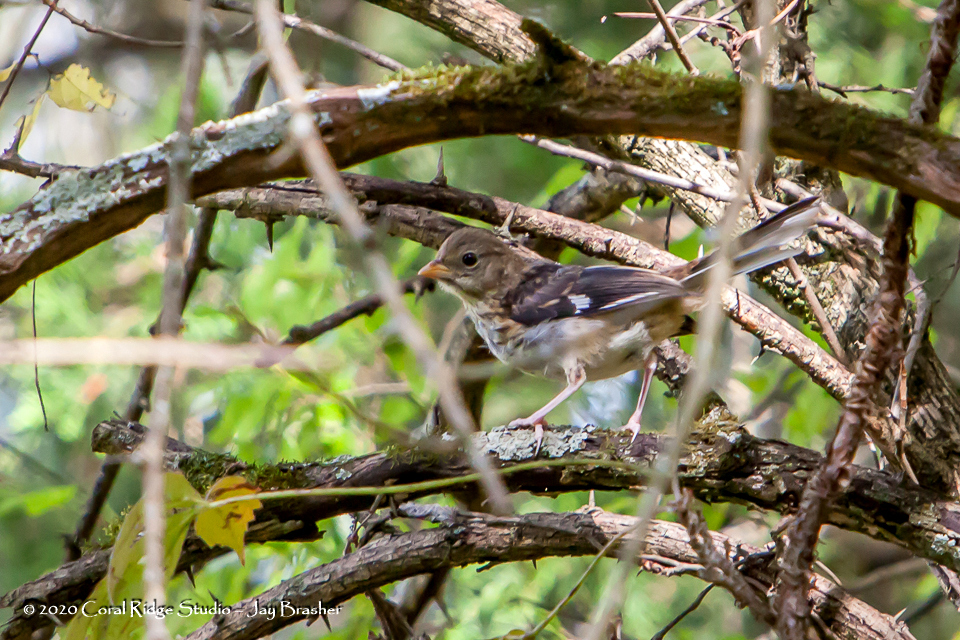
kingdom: Animalia
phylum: Chordata
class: Aves
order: Passeriformes
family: Passerellidae
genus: Pipilo
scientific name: Pipilo erythrophthalmus
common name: Eastern towhee
